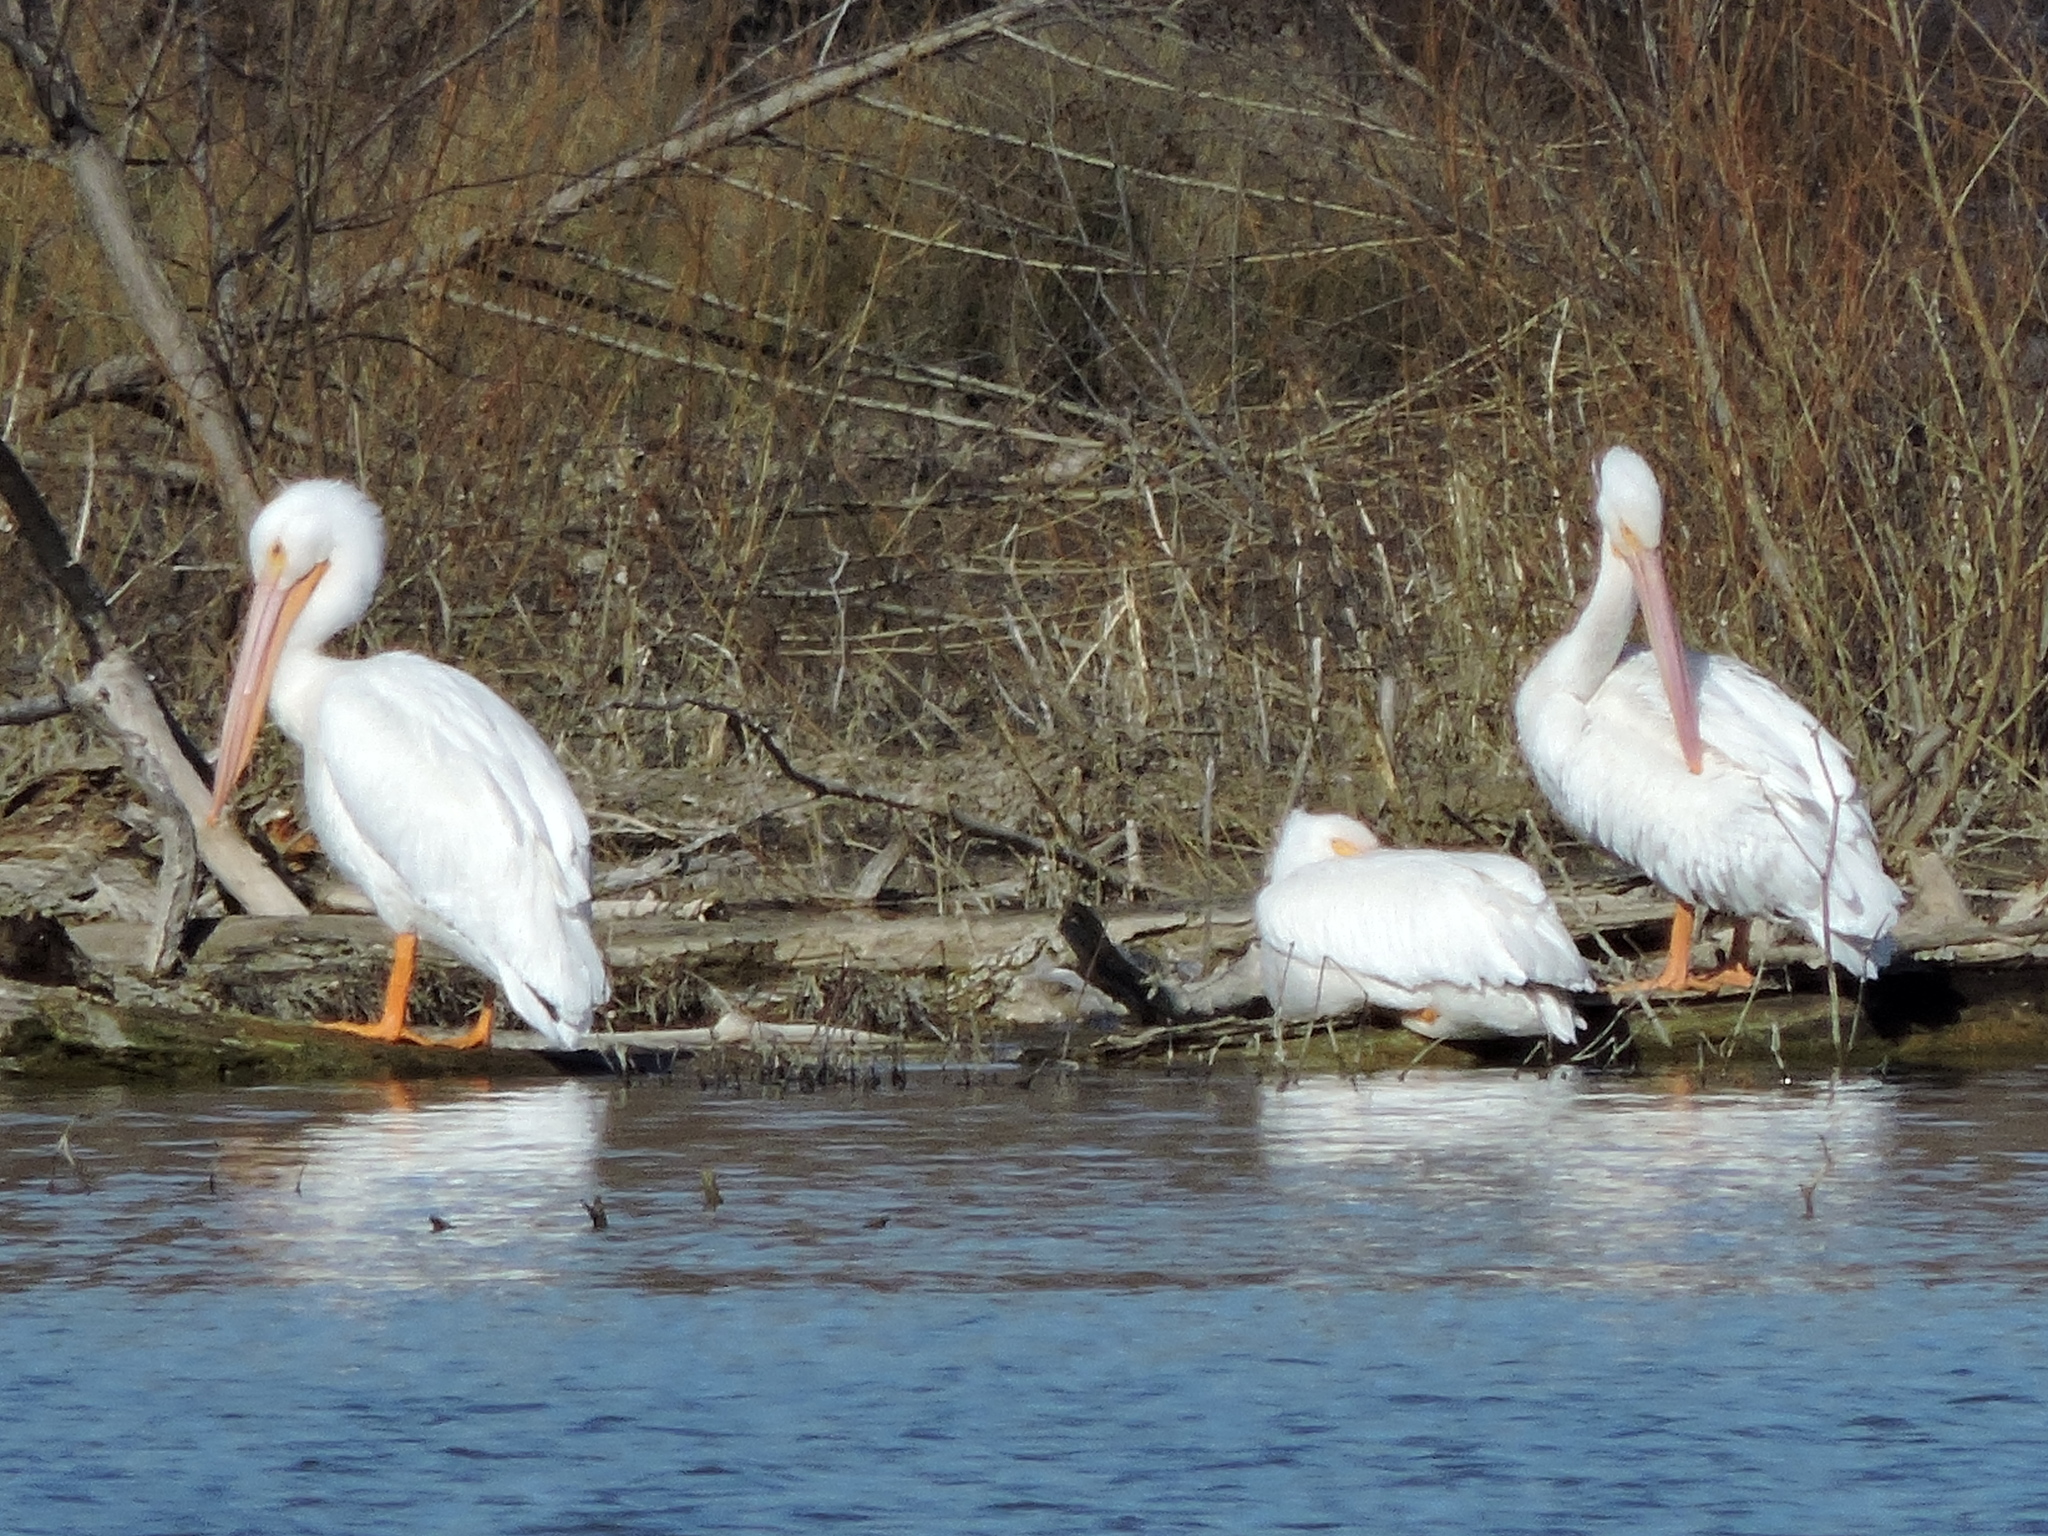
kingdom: Animalia
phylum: Chordata
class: Aves
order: Pelecaniformes
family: Pelecanidae
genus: Pelecanus
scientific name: Pelecanus erythrorhynchos
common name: American white pelican
